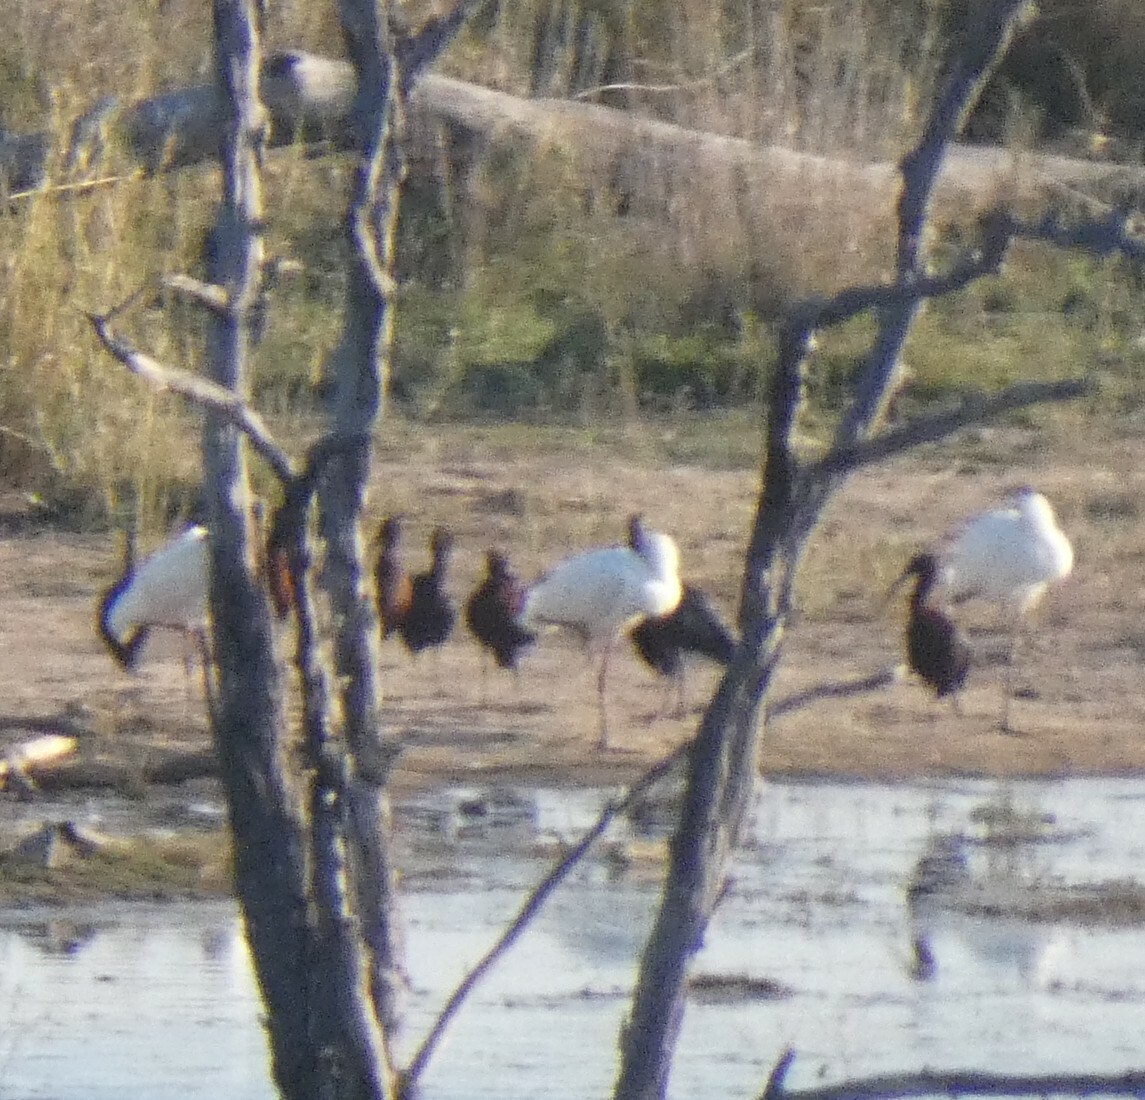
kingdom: Animalia
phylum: Chordata
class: Aves
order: Pelecaniformes
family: Threskiornithidae
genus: Platalea
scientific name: Platalea alba
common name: African spoonbill
